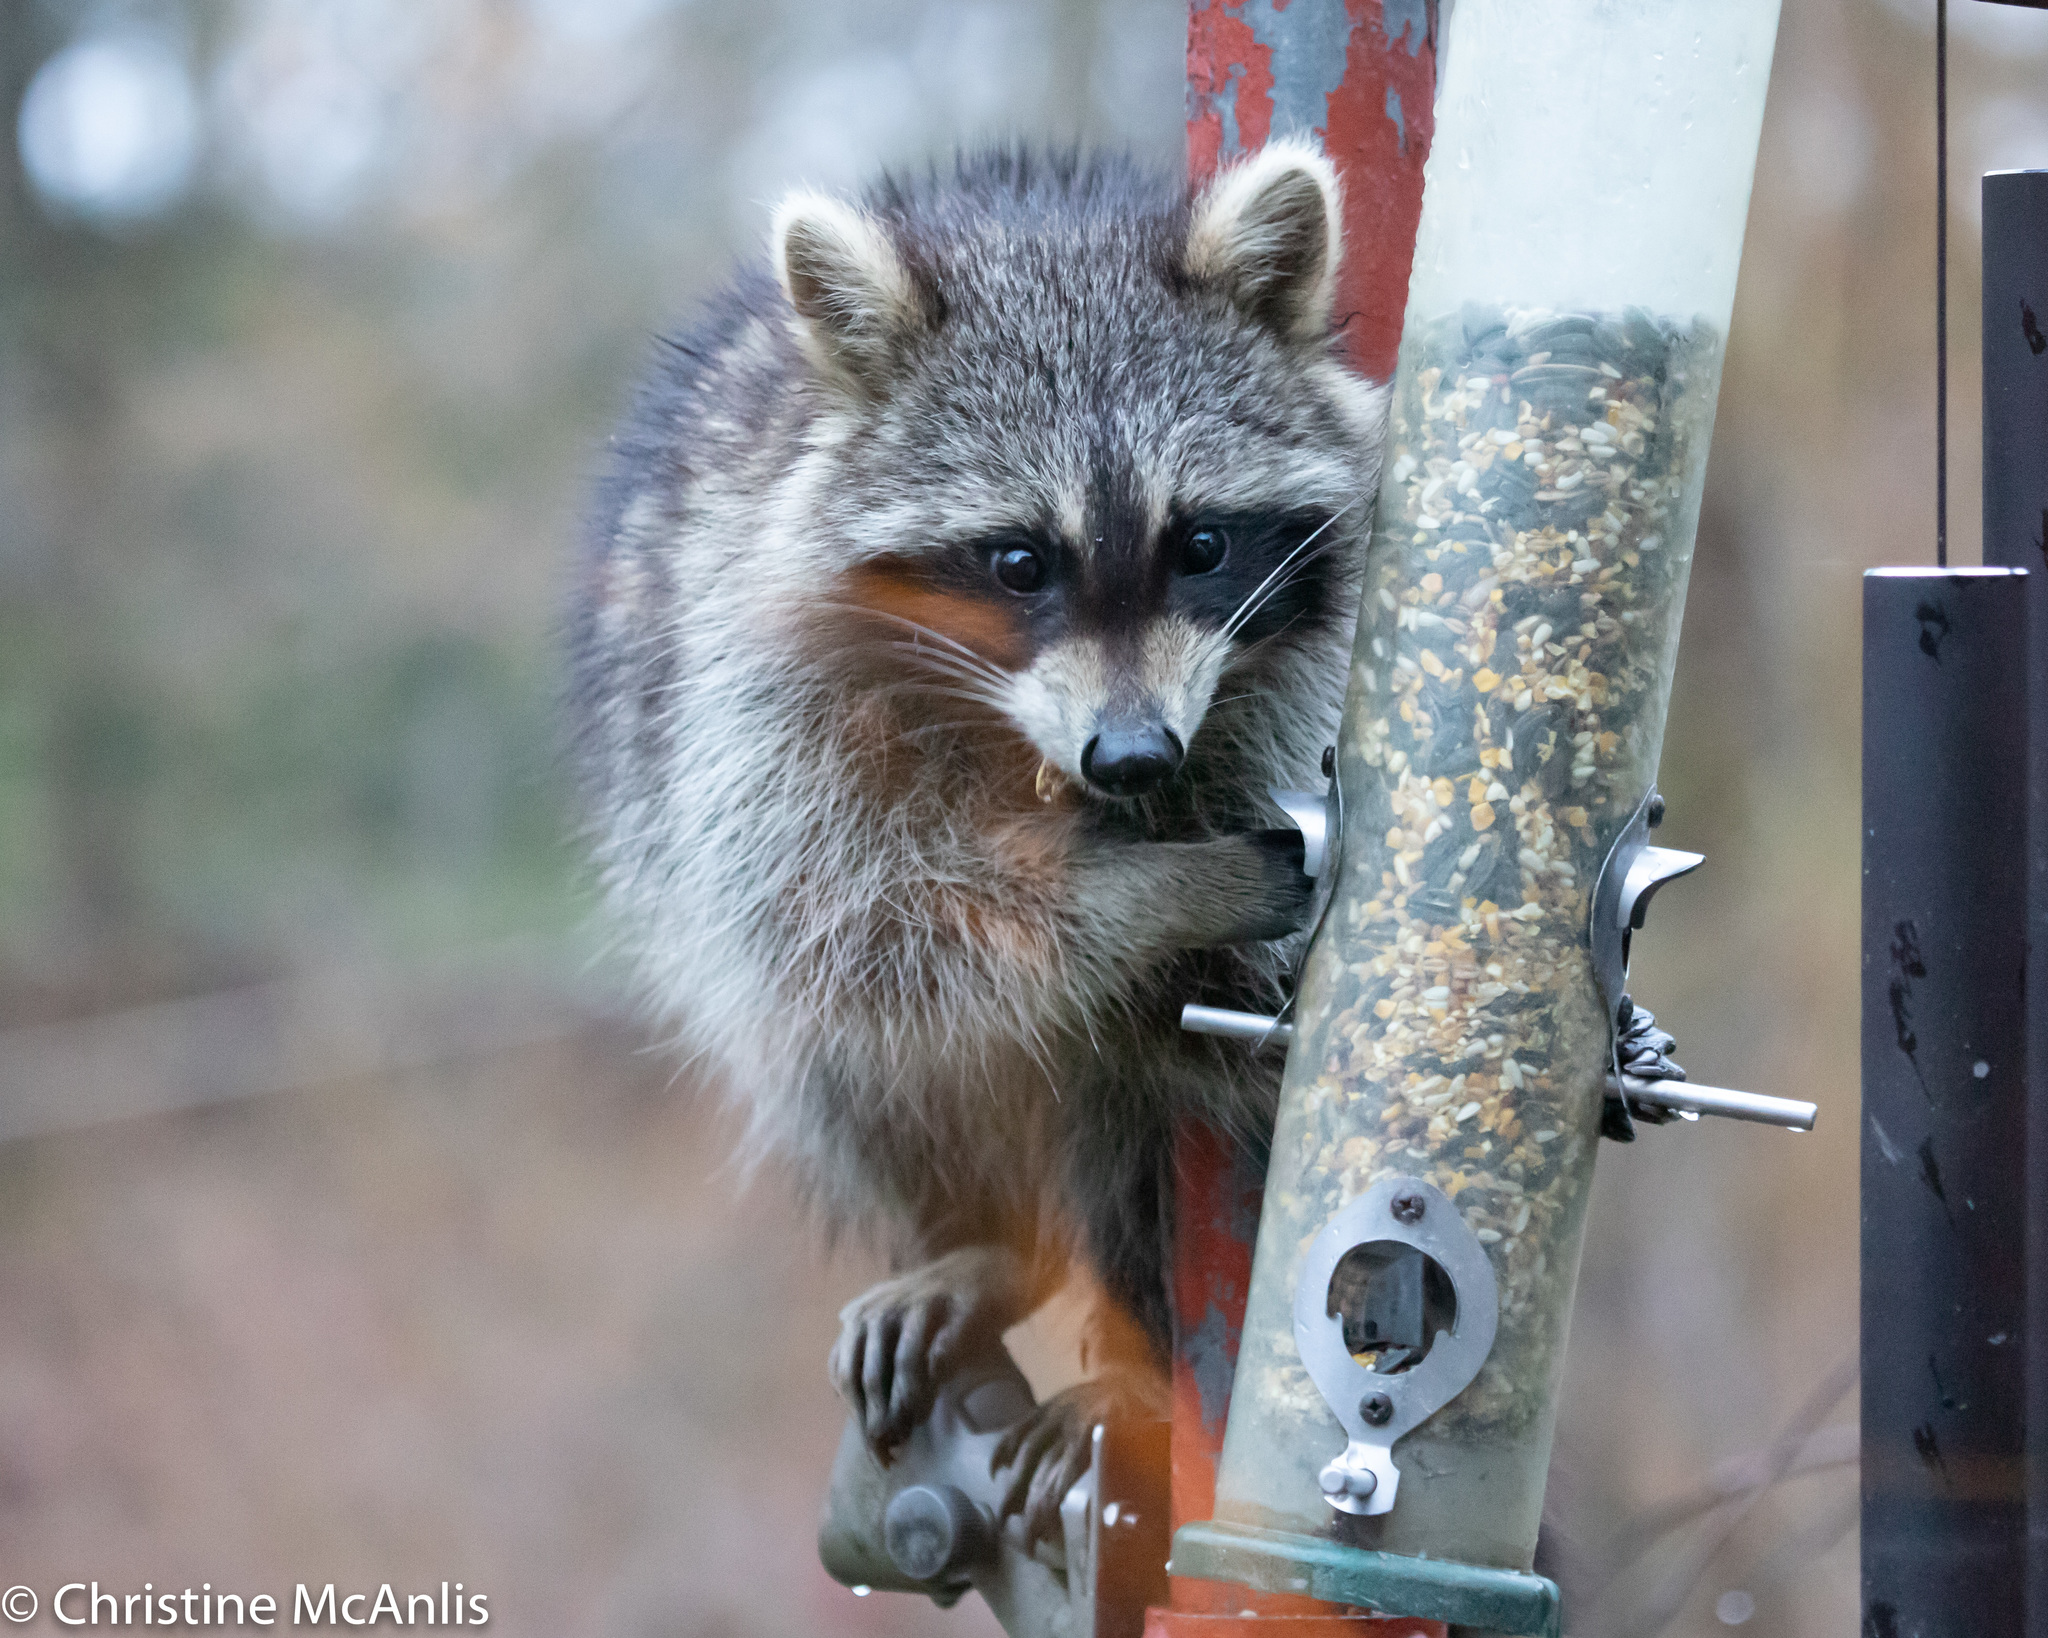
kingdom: Animalia
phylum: Chordata
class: Mammalia
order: Carnivora
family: Procyonidae
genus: Procyon
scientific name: Procyon lotor
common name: Raccoon
